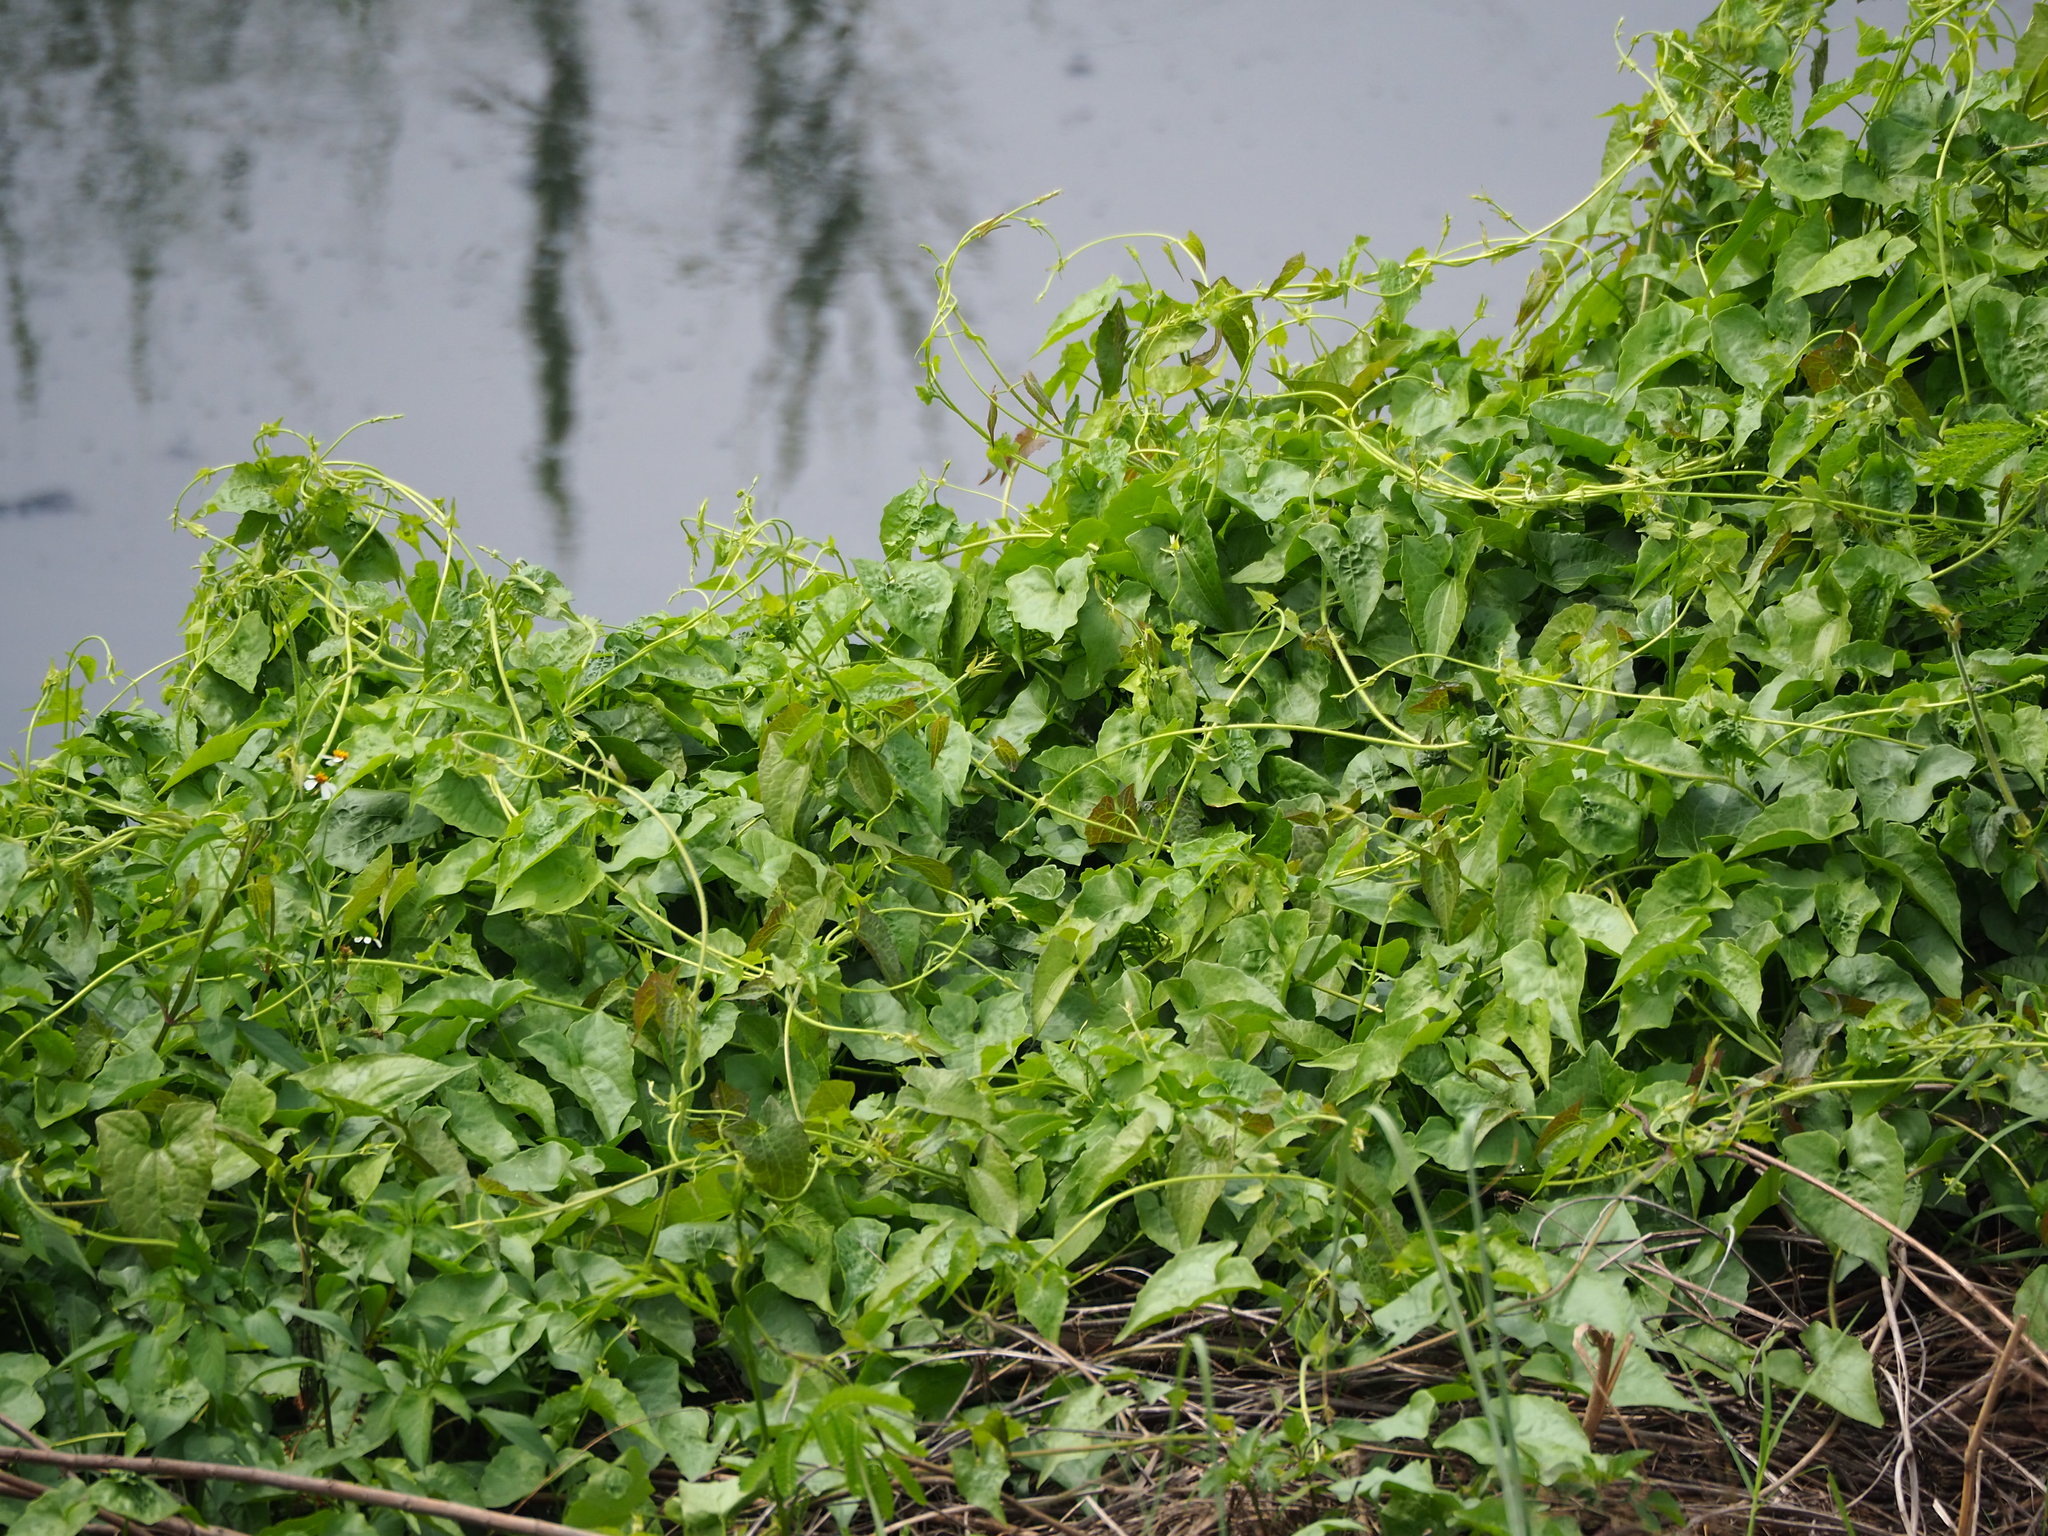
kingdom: Plantae
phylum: Tracheophyta
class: Magnoliopsida
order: Asterales
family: Asteraceae
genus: Mikania
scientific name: Mikania micrantha
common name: Mile-a-minute
